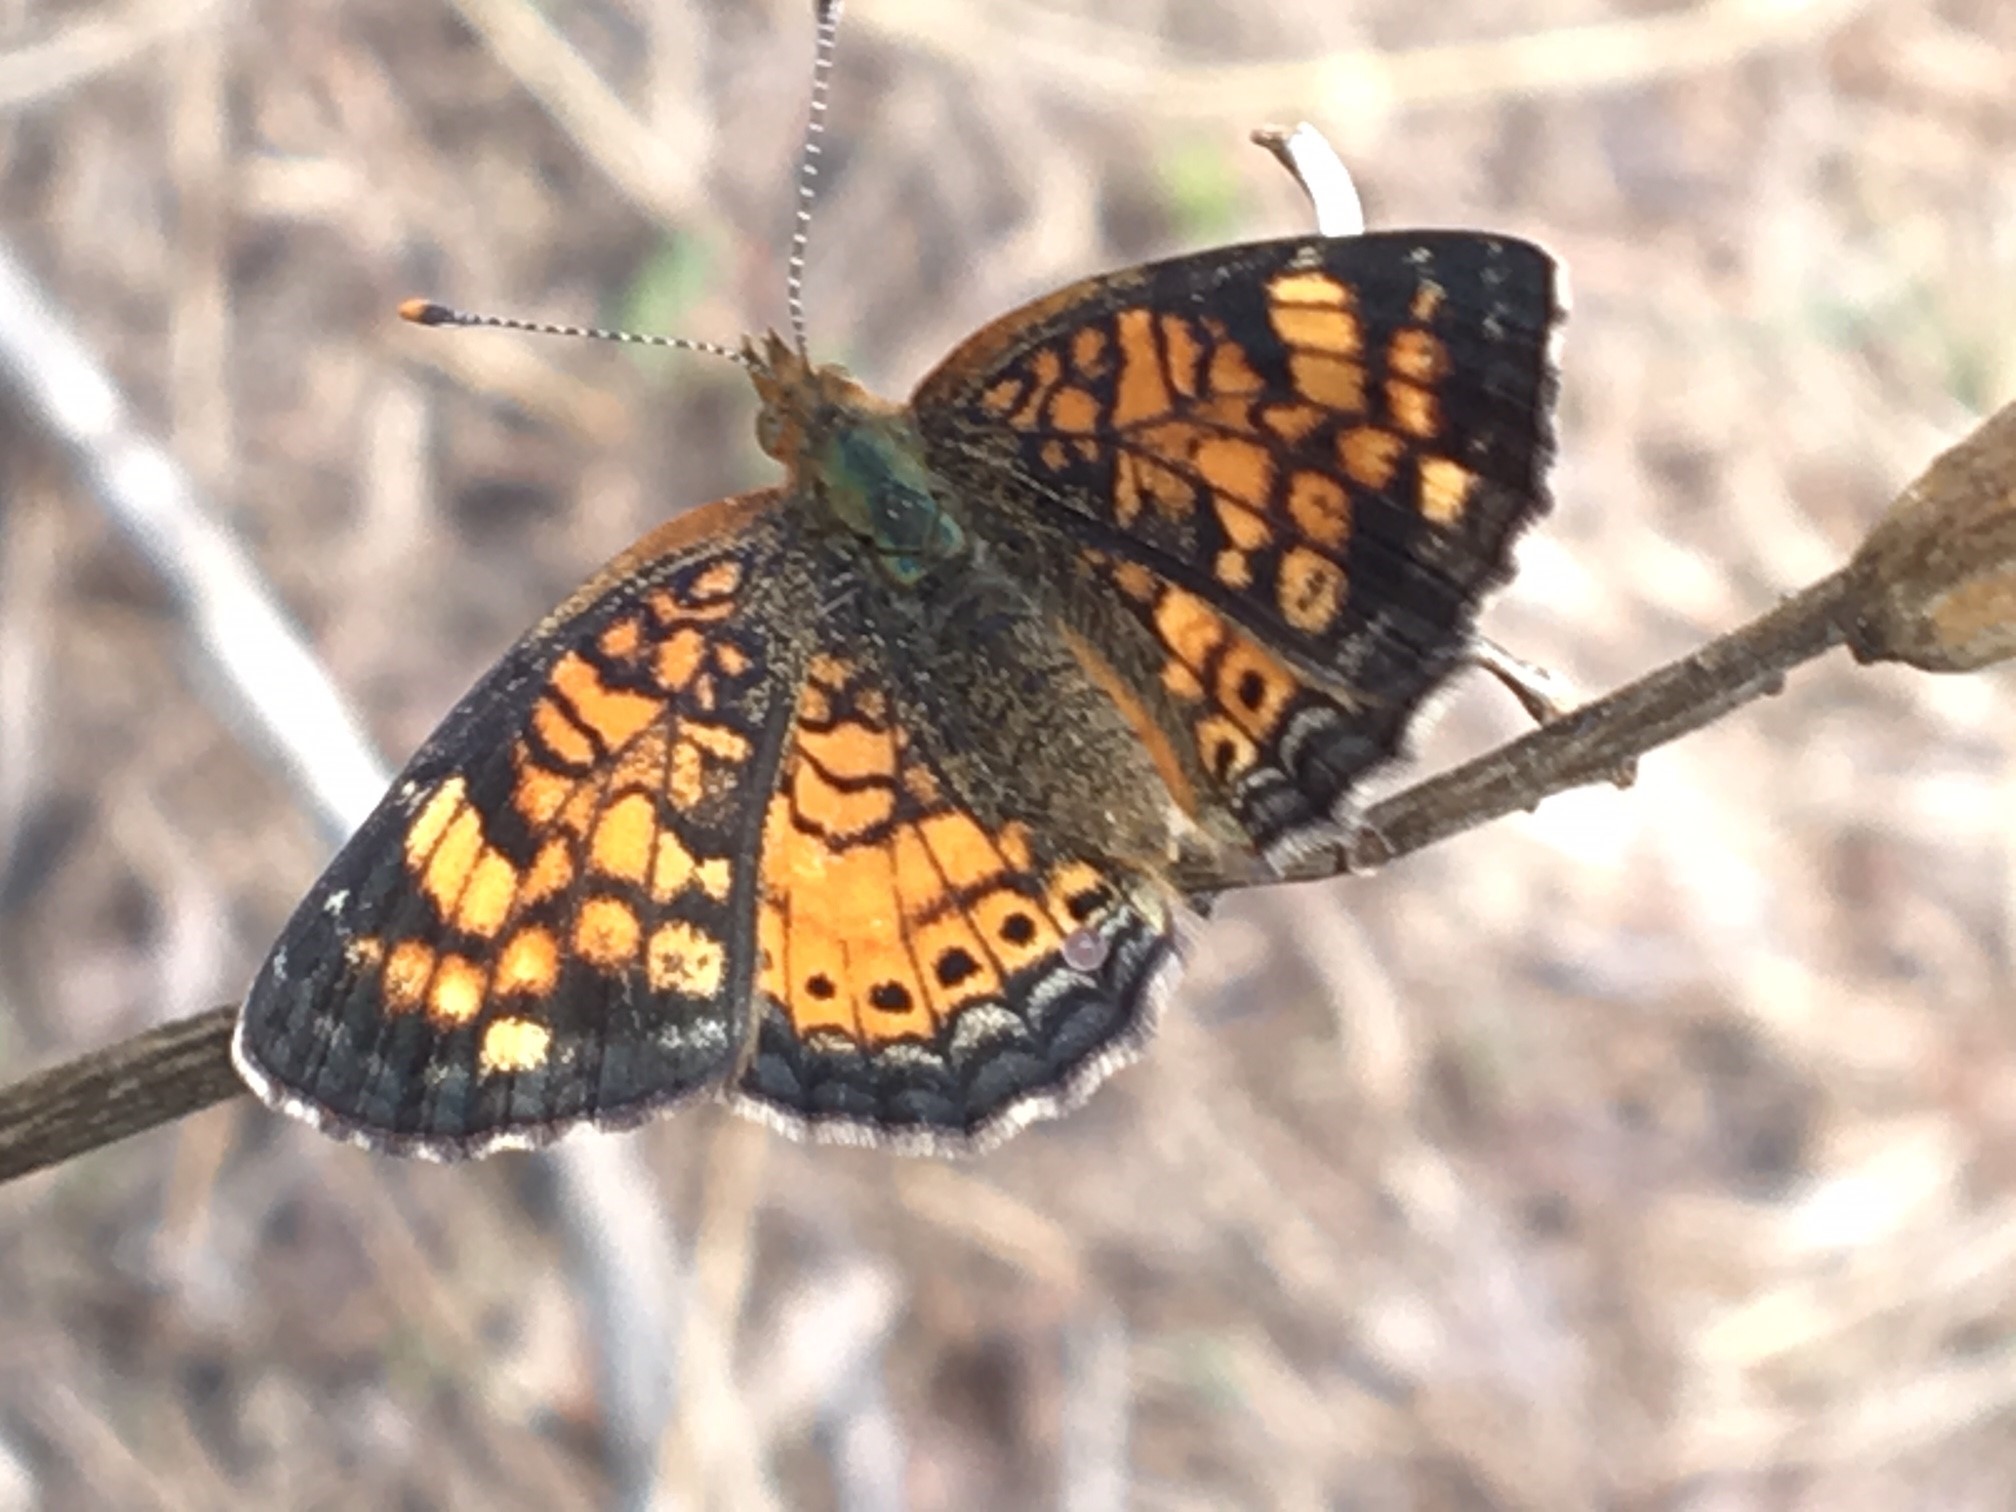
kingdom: Animalia
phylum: Arthropoda
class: Insecta
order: Lepidoptera
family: Nymphalidae
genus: Phyciodes
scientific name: Phyciodes tharos
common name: Pearl crescent
